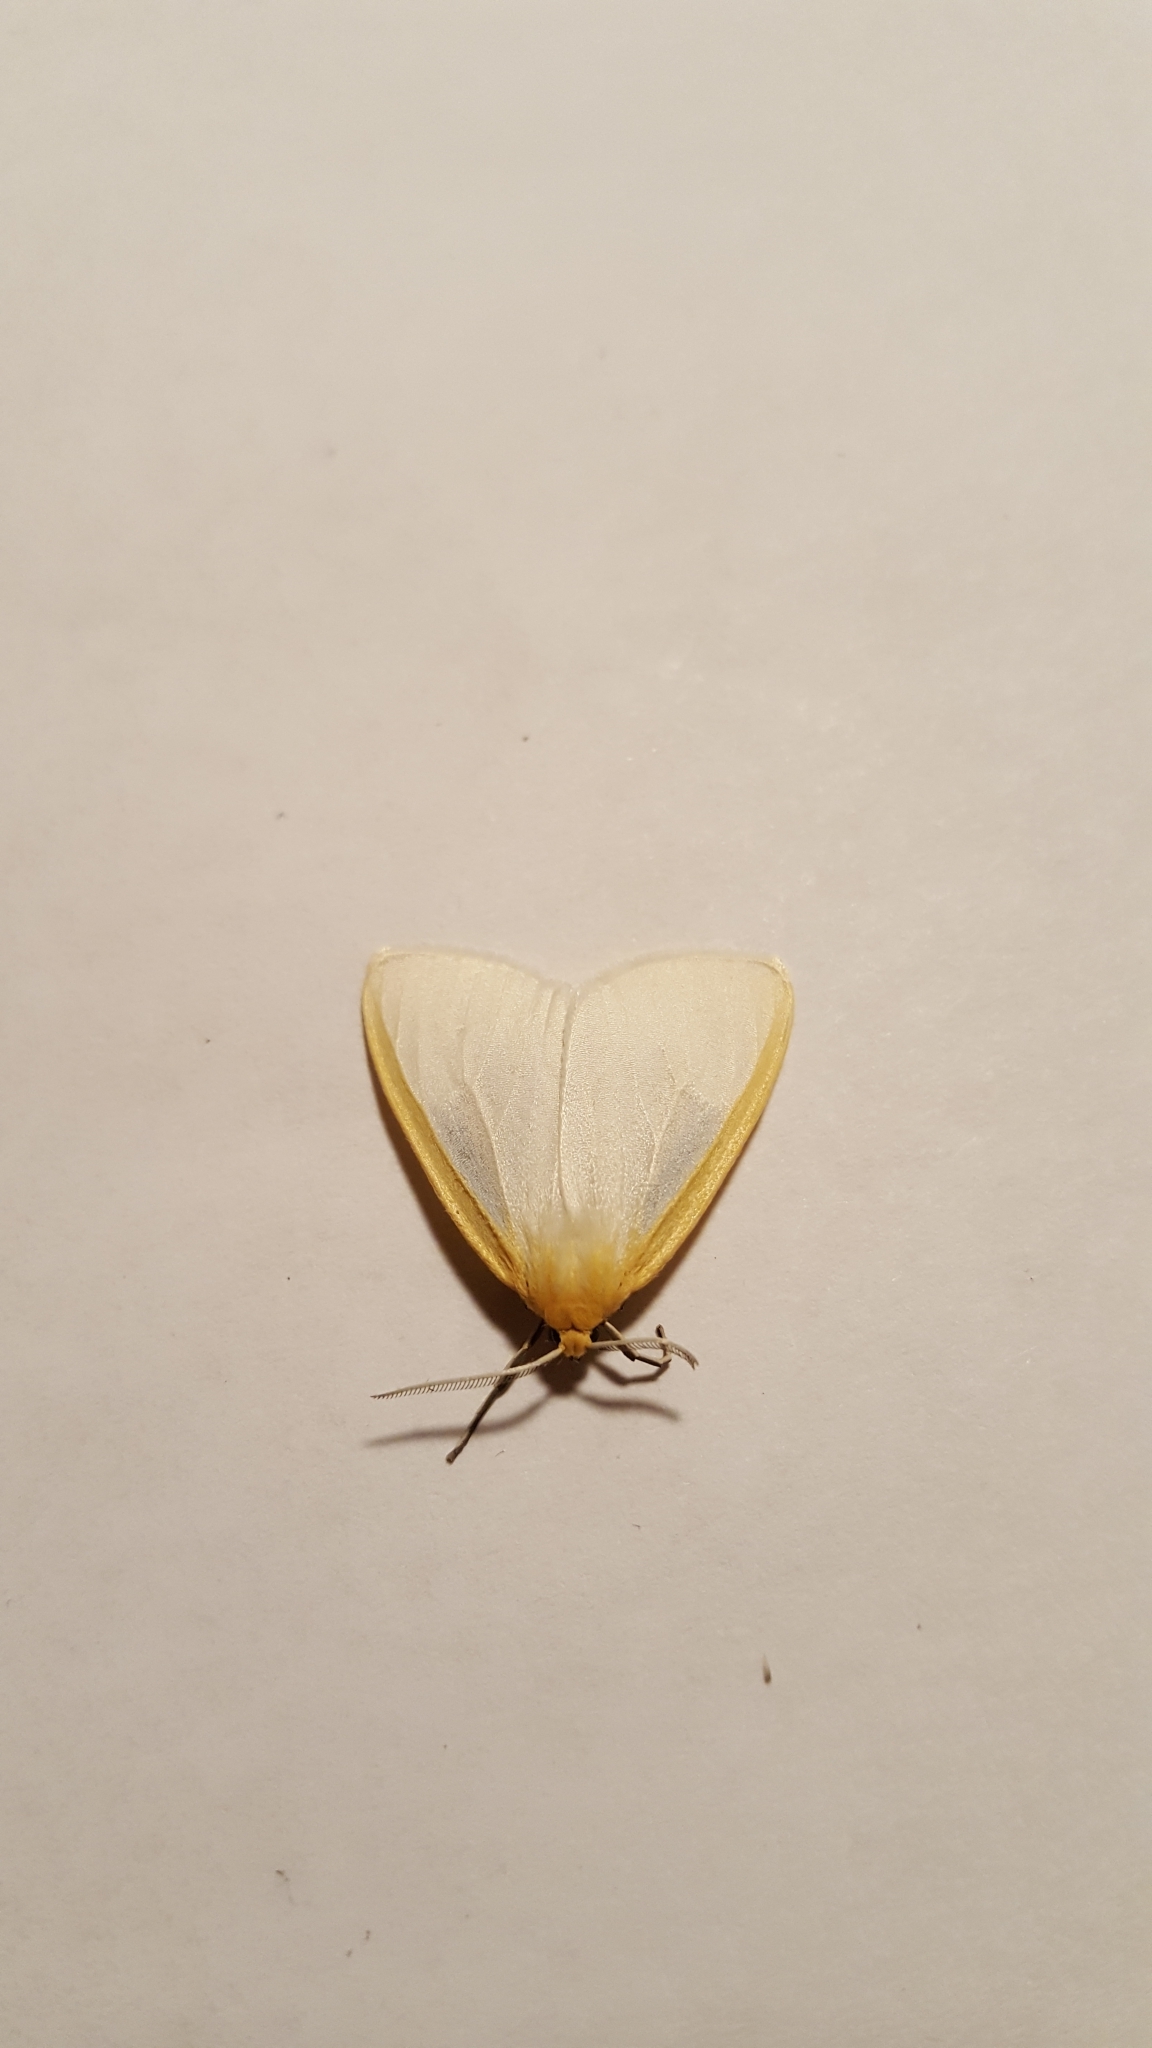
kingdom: Animalia
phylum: Arthropoda
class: Insecta
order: Lepidoptera
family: Erebidae
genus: Cycnia
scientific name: Cycnia tenera
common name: Delicate cycnia moth
